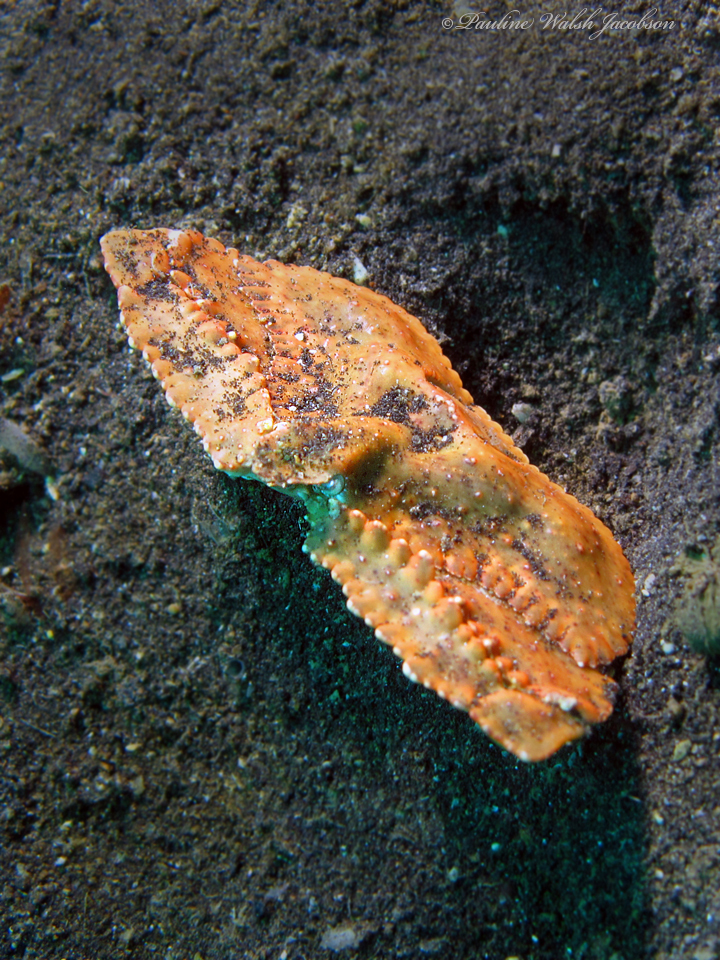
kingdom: Animalia
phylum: Arthropoda
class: Malacostraca
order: Decapoda
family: Parthenopidae
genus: Cryptopodia
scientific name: Cryptopodia dorsalis
